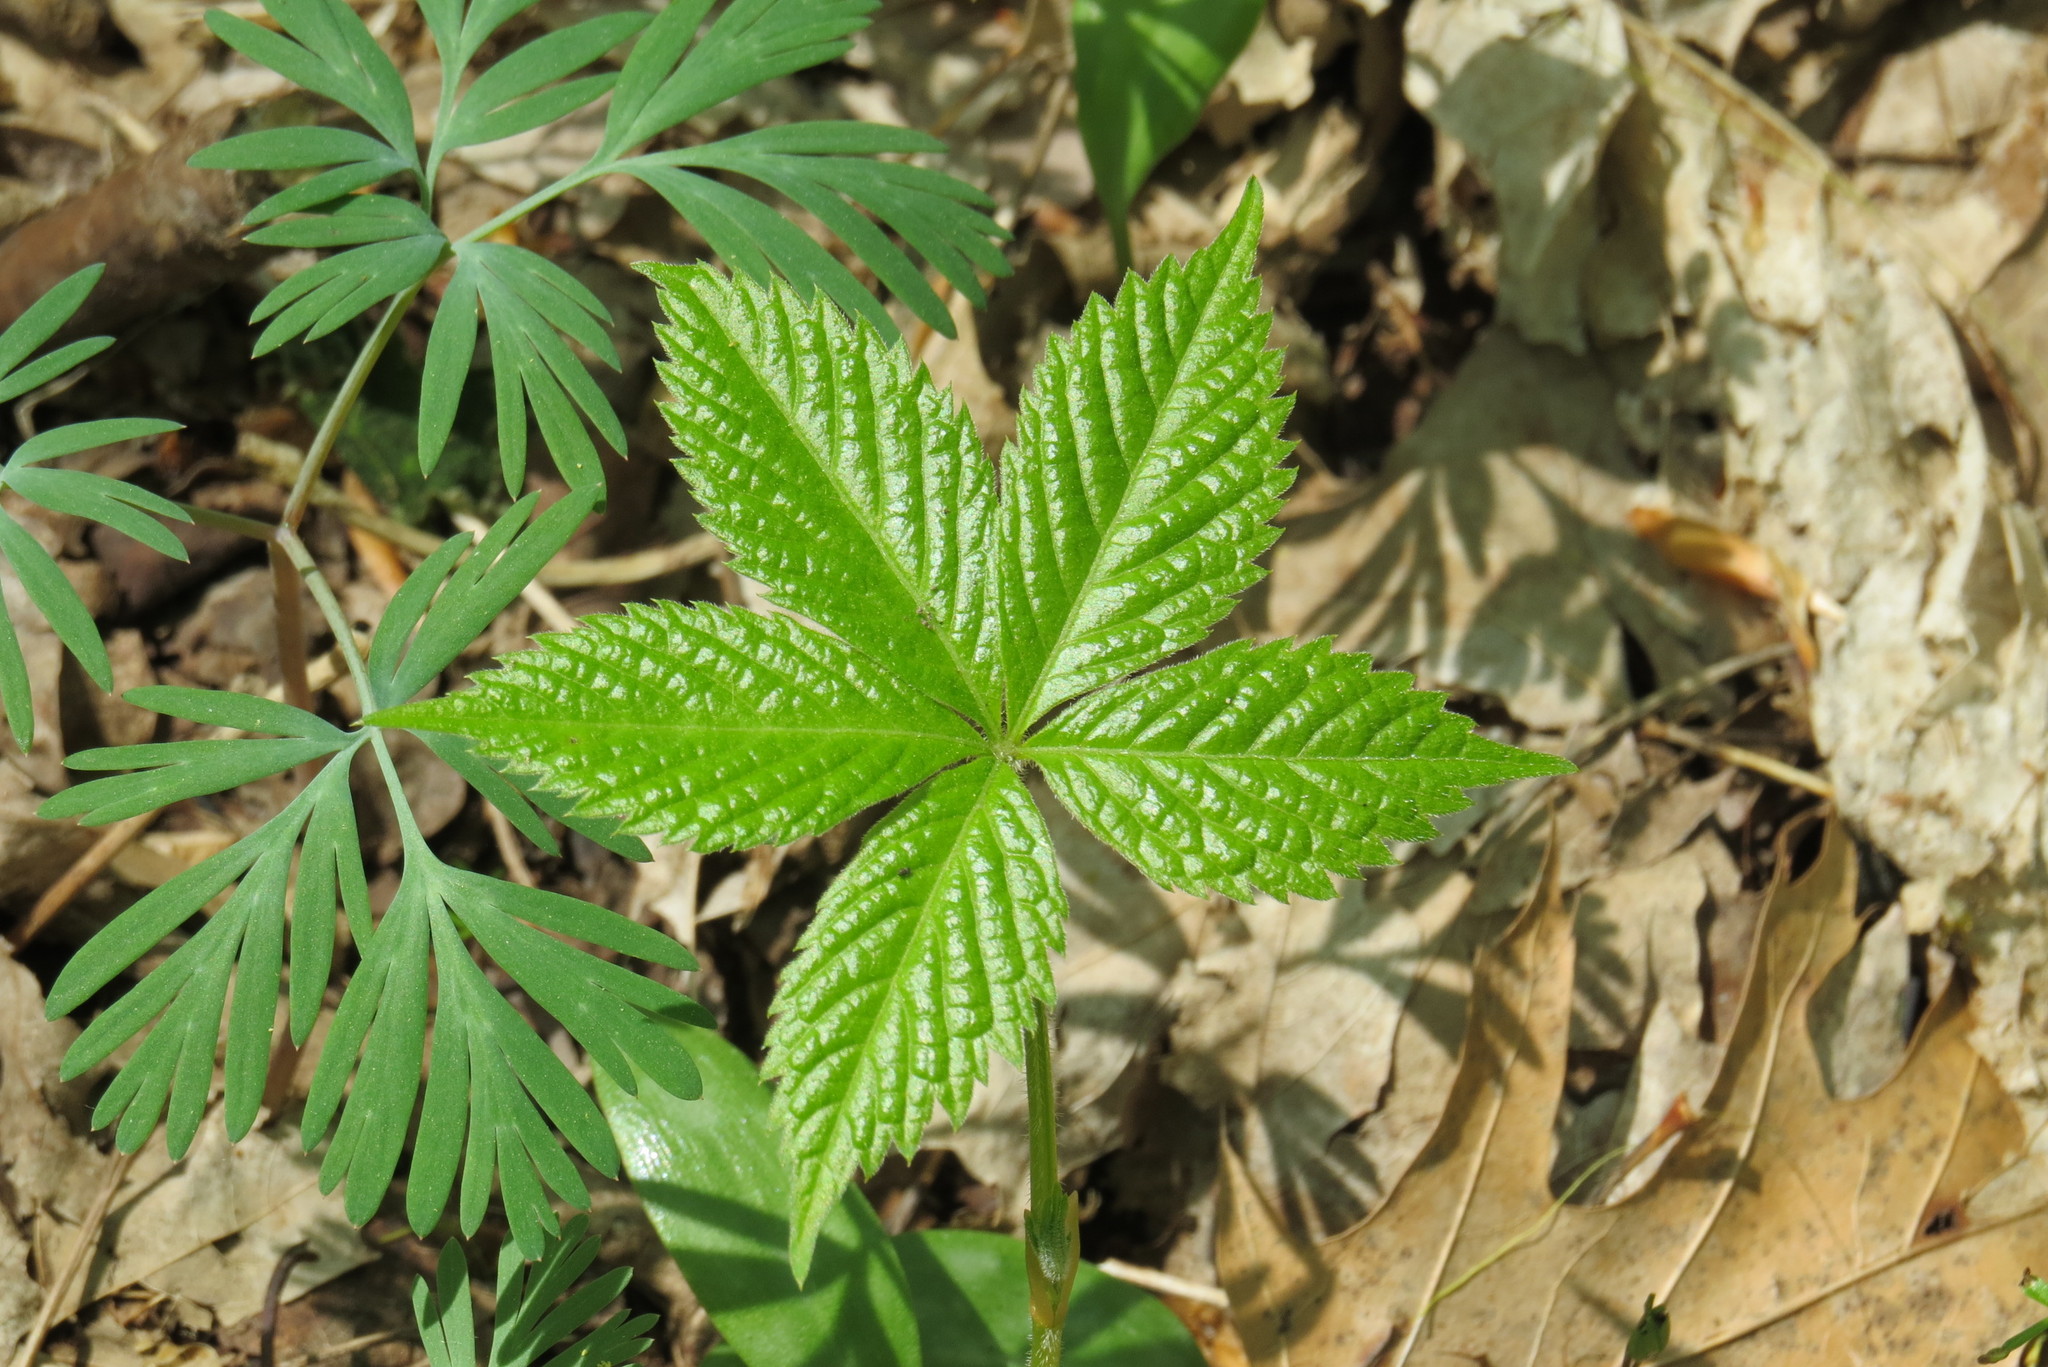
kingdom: Plantae
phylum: Tracheophyta
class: Magnoliopsida
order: Vitales
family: Vitaceae
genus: Parthenocissus
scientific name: Parthenocissus quinquefolia
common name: Virginia-creeper
